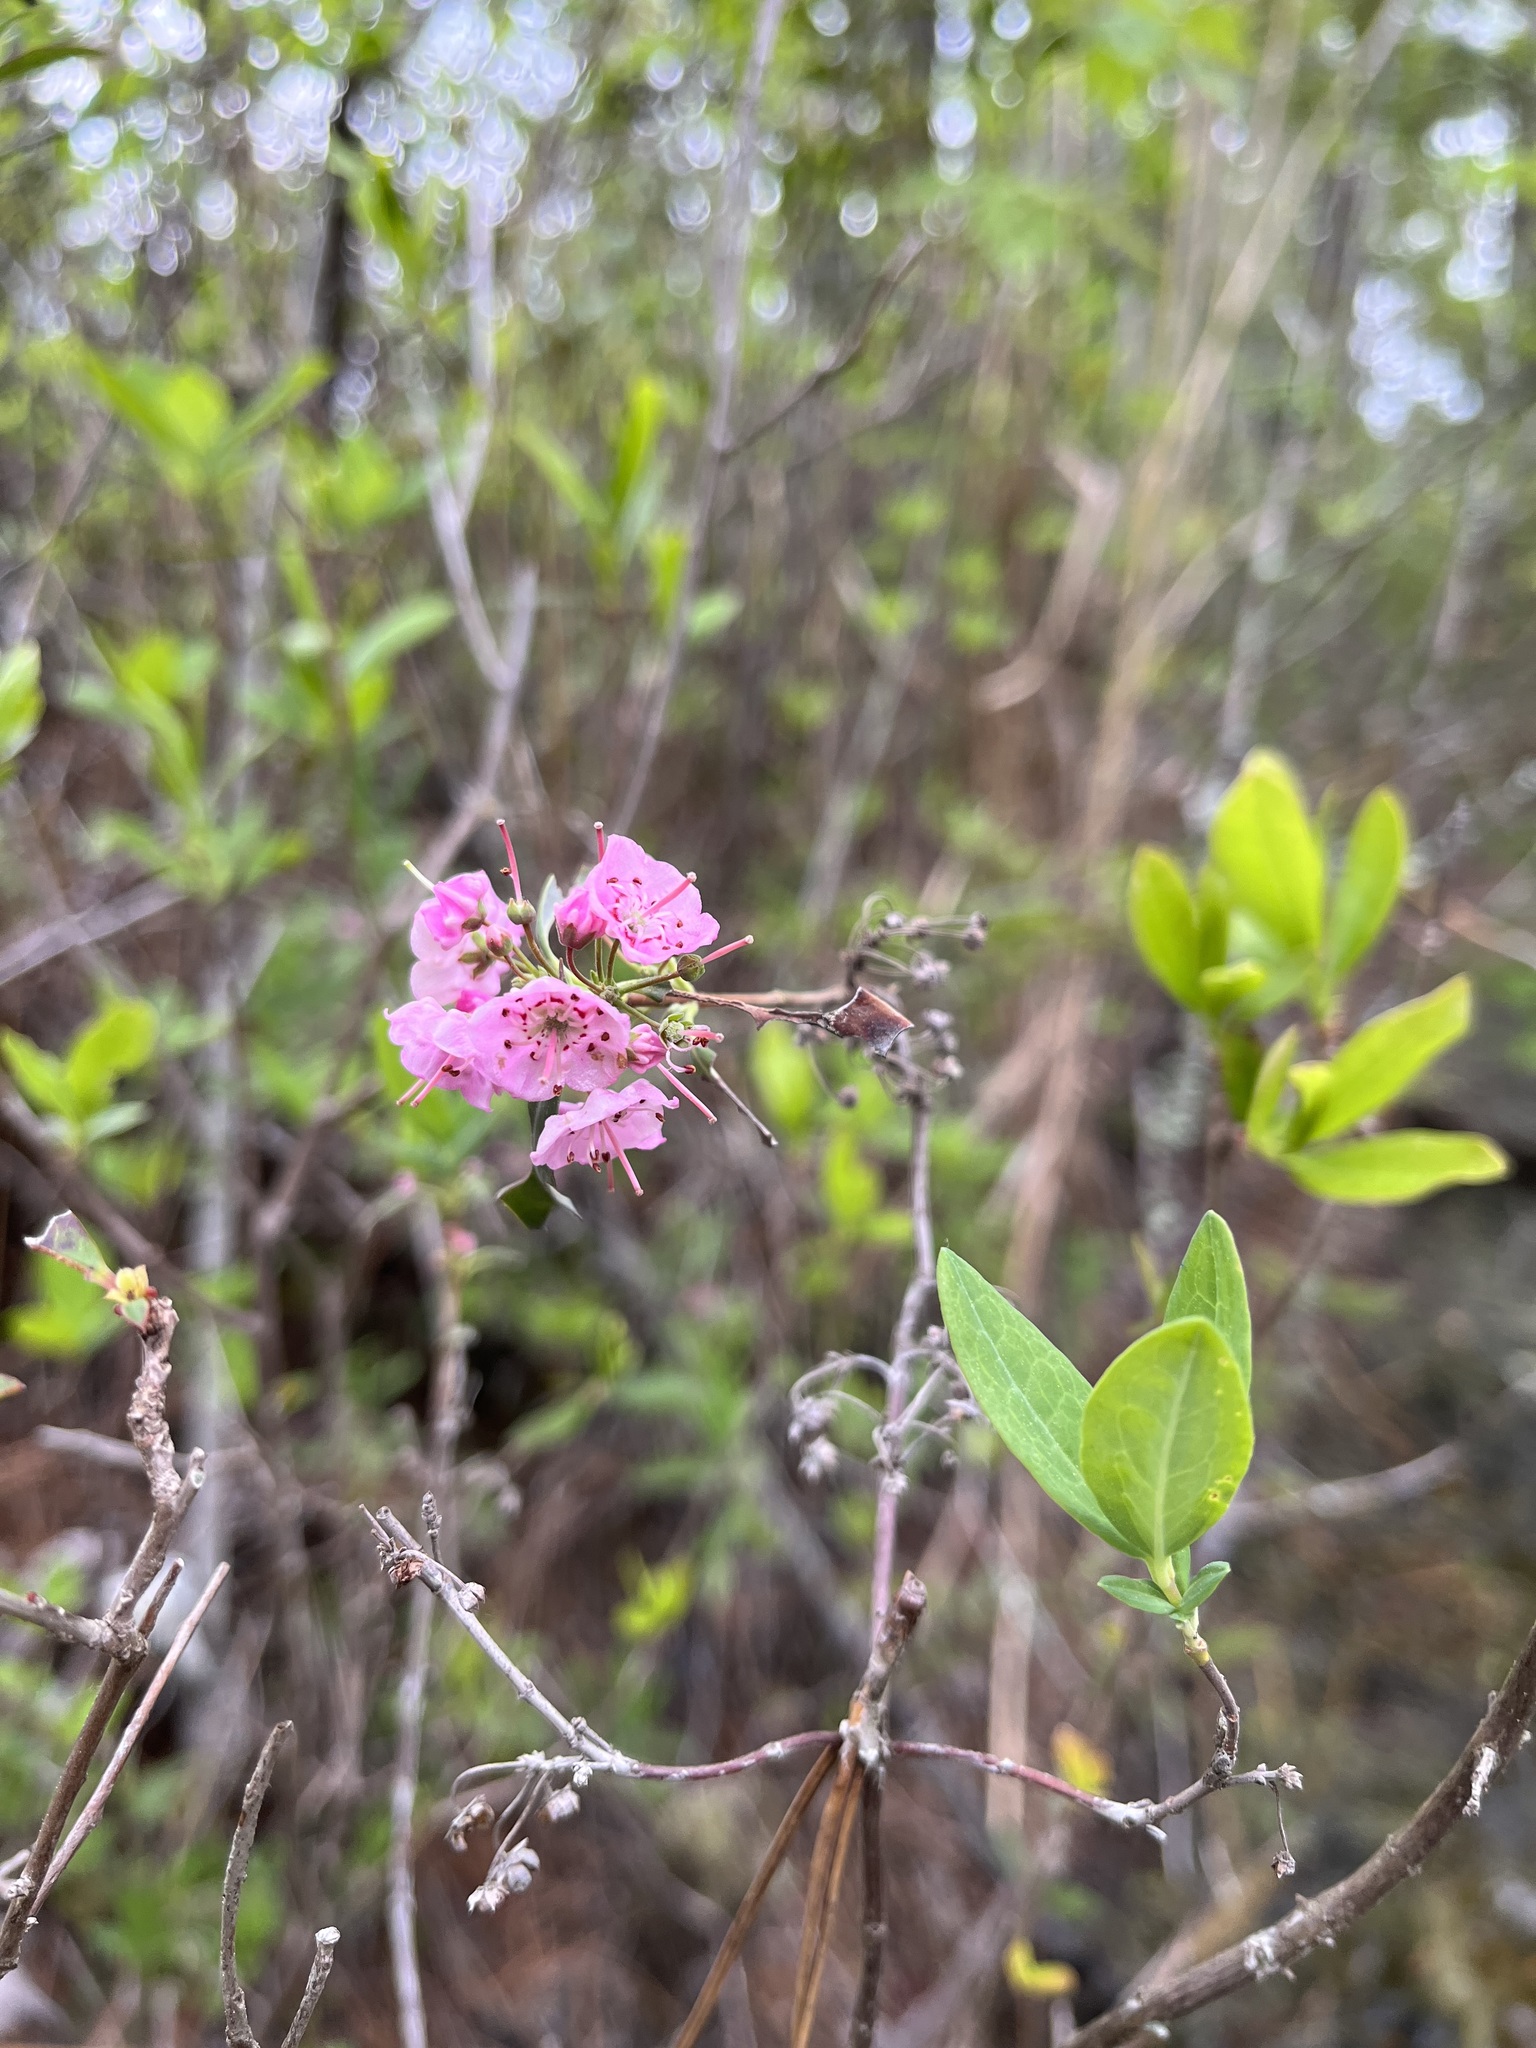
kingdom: Plantae
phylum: Tracheophyta
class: Magnoliopsida
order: Ericales
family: Ericaceae
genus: Kalmia
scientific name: Kalmia angustifolia
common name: Sheep-laurel
